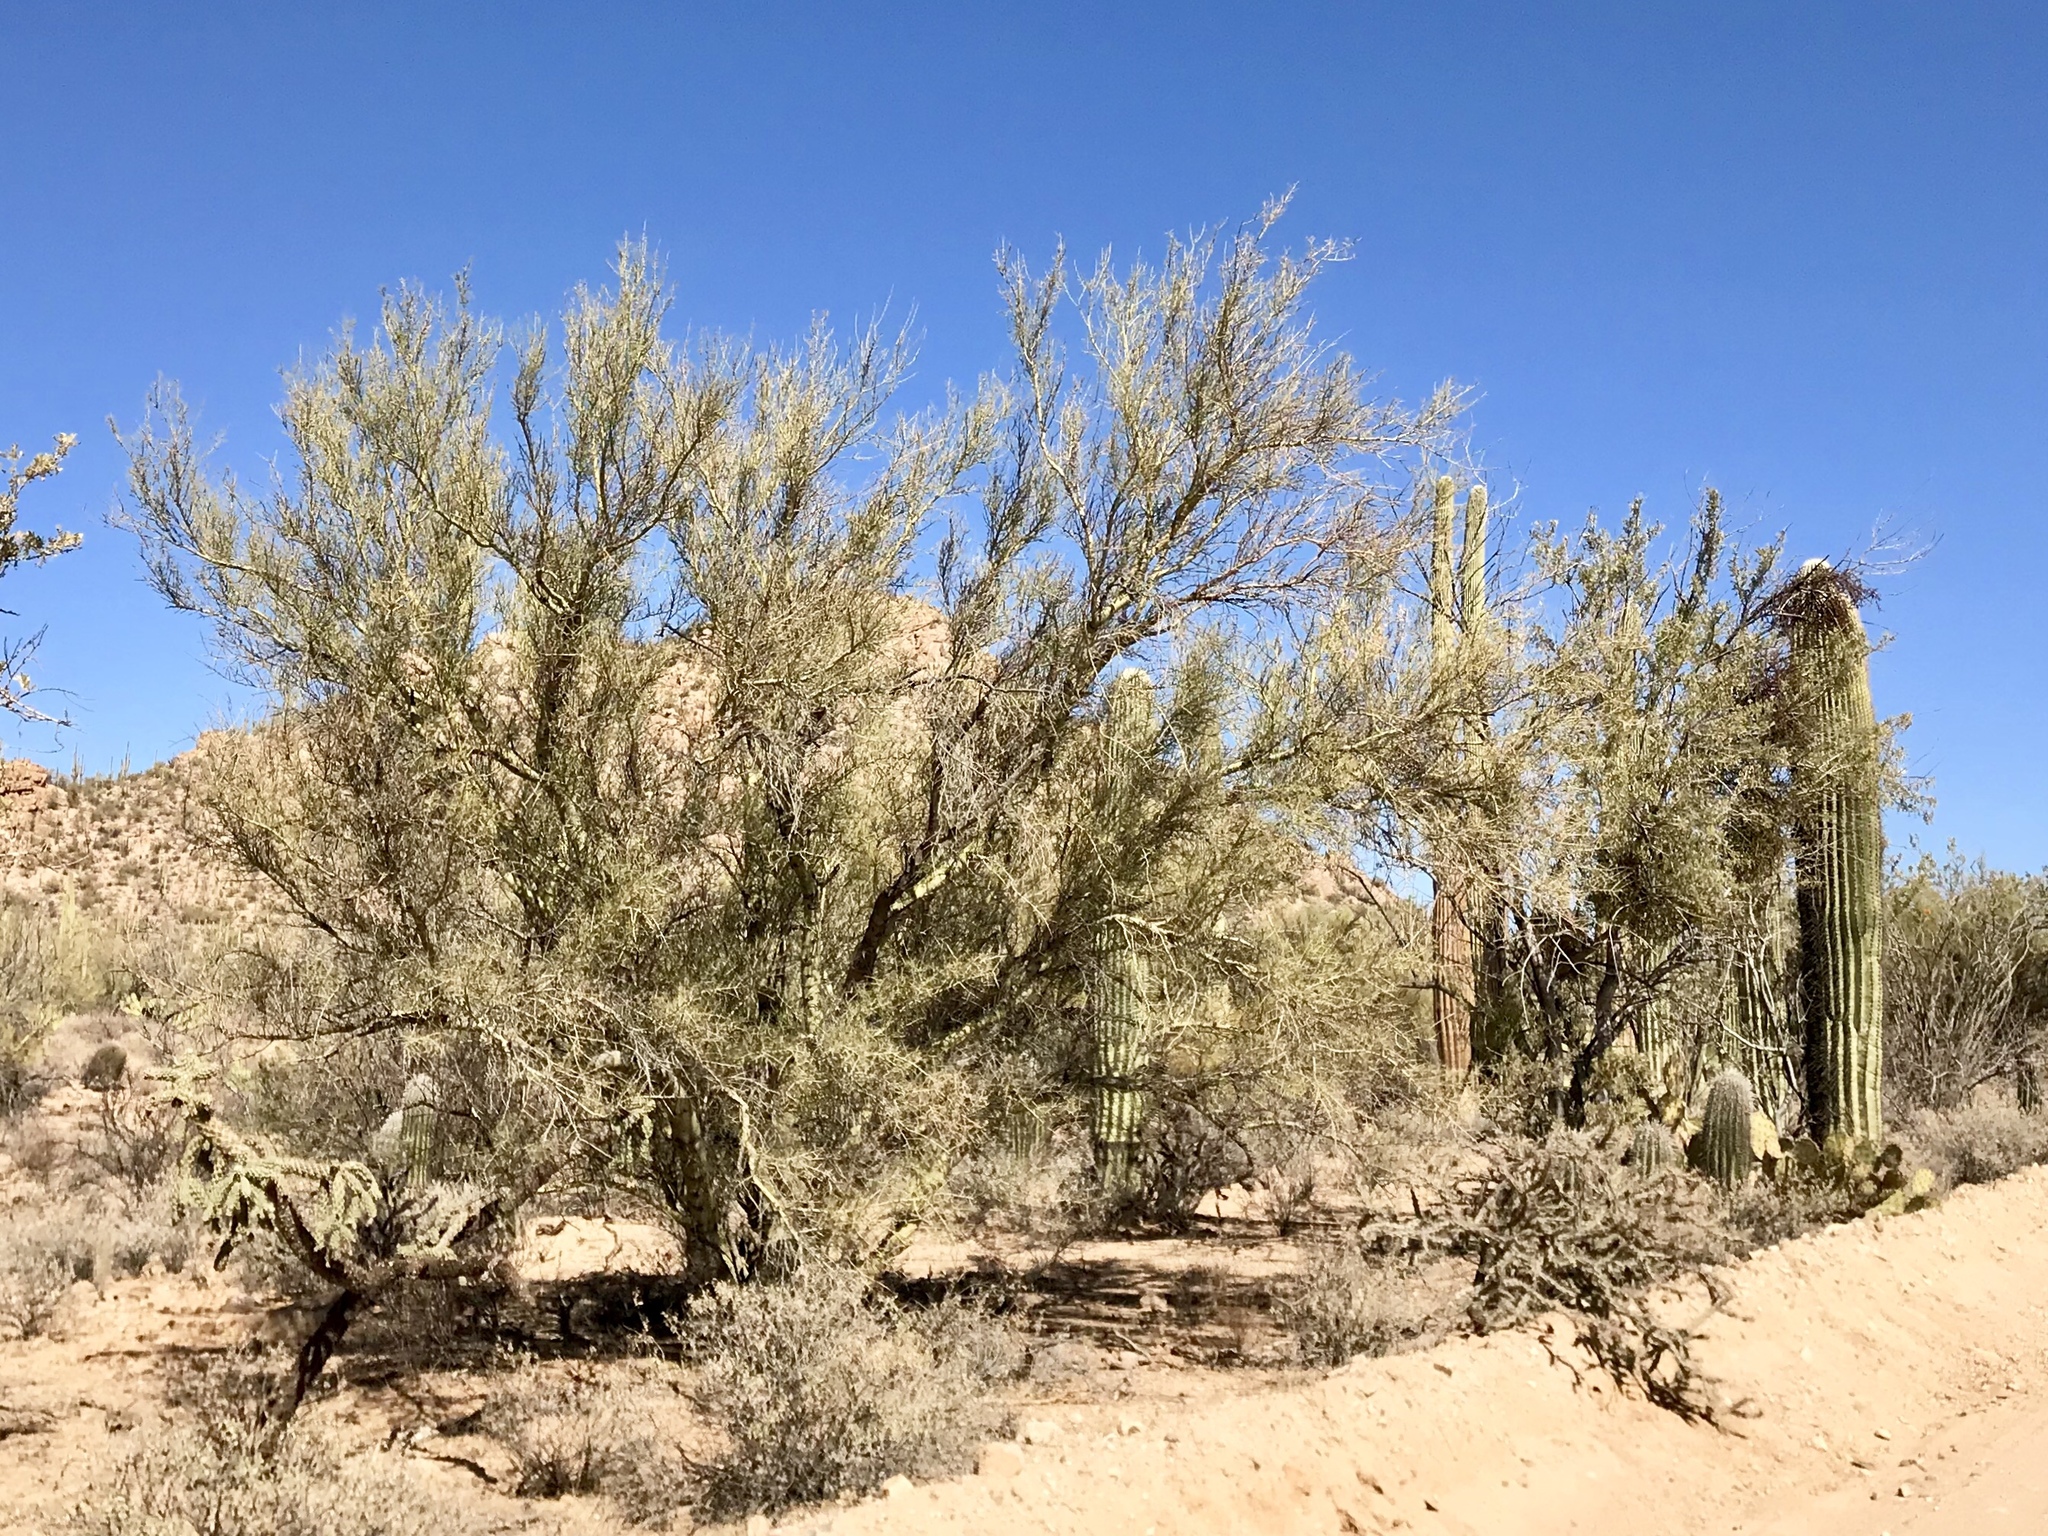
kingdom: Plantae
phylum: Tracheophyta
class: Magnoliopsida
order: Fabales
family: Fabaceae
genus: Parkinsonia
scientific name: Parkinsonia microphylla
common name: Yellow paloverde
